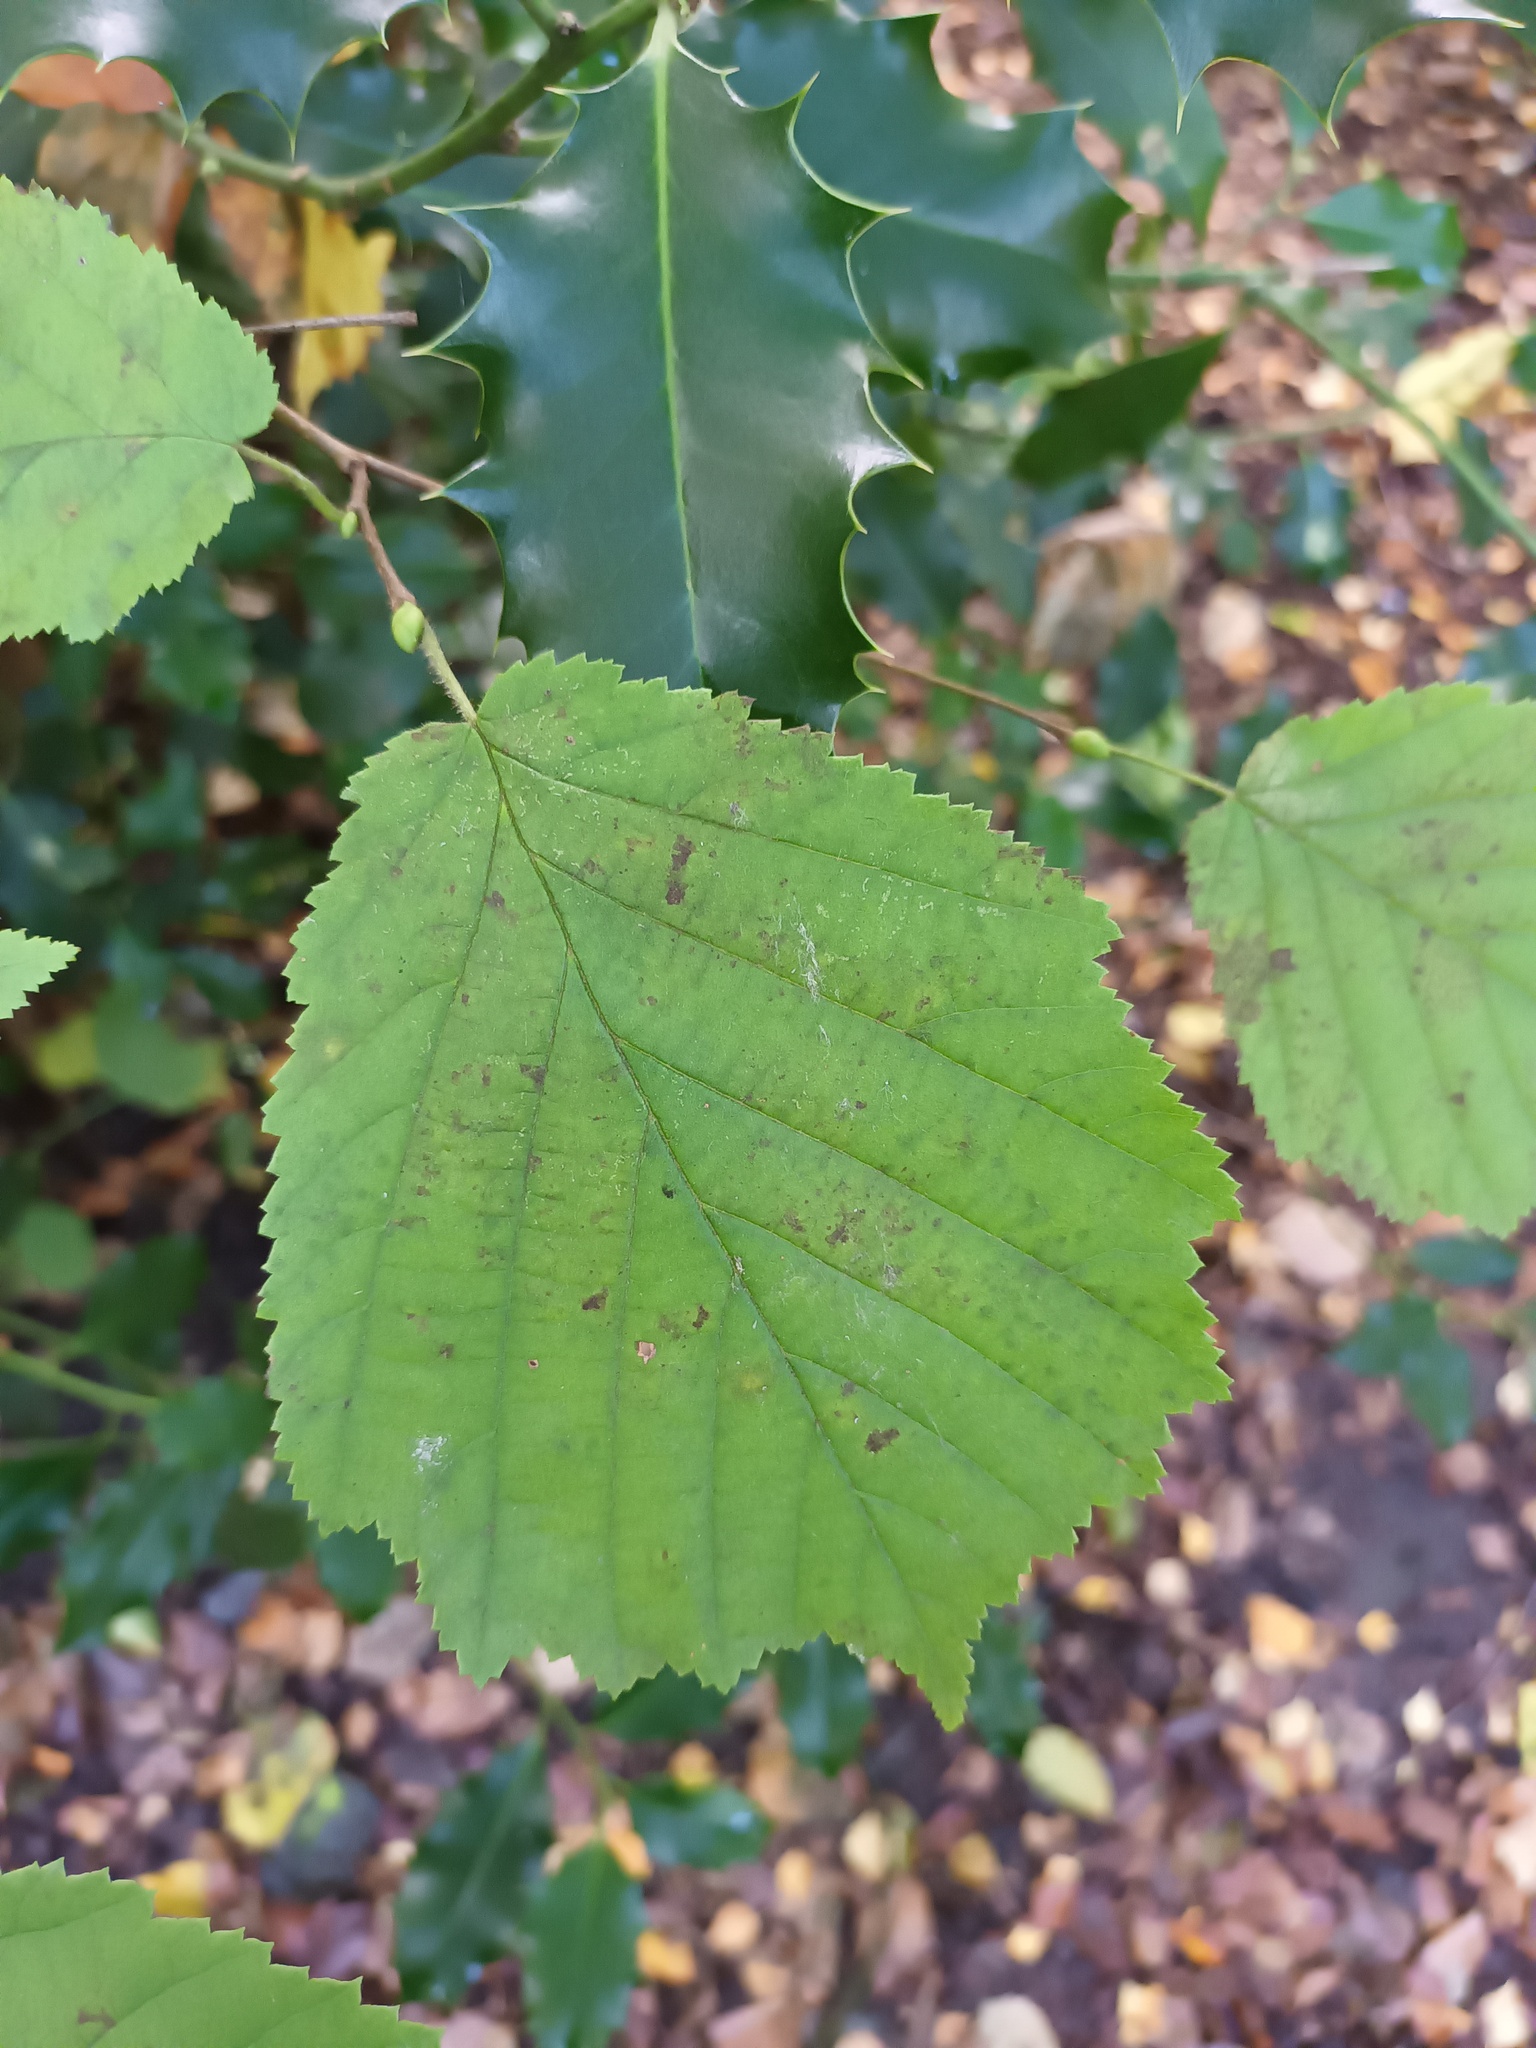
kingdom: Plantae
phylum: Tracheophyta
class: Magnoliopsida
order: Fagales
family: Betulaceae
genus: Corylus
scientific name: Corylus avellana
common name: European hazel
